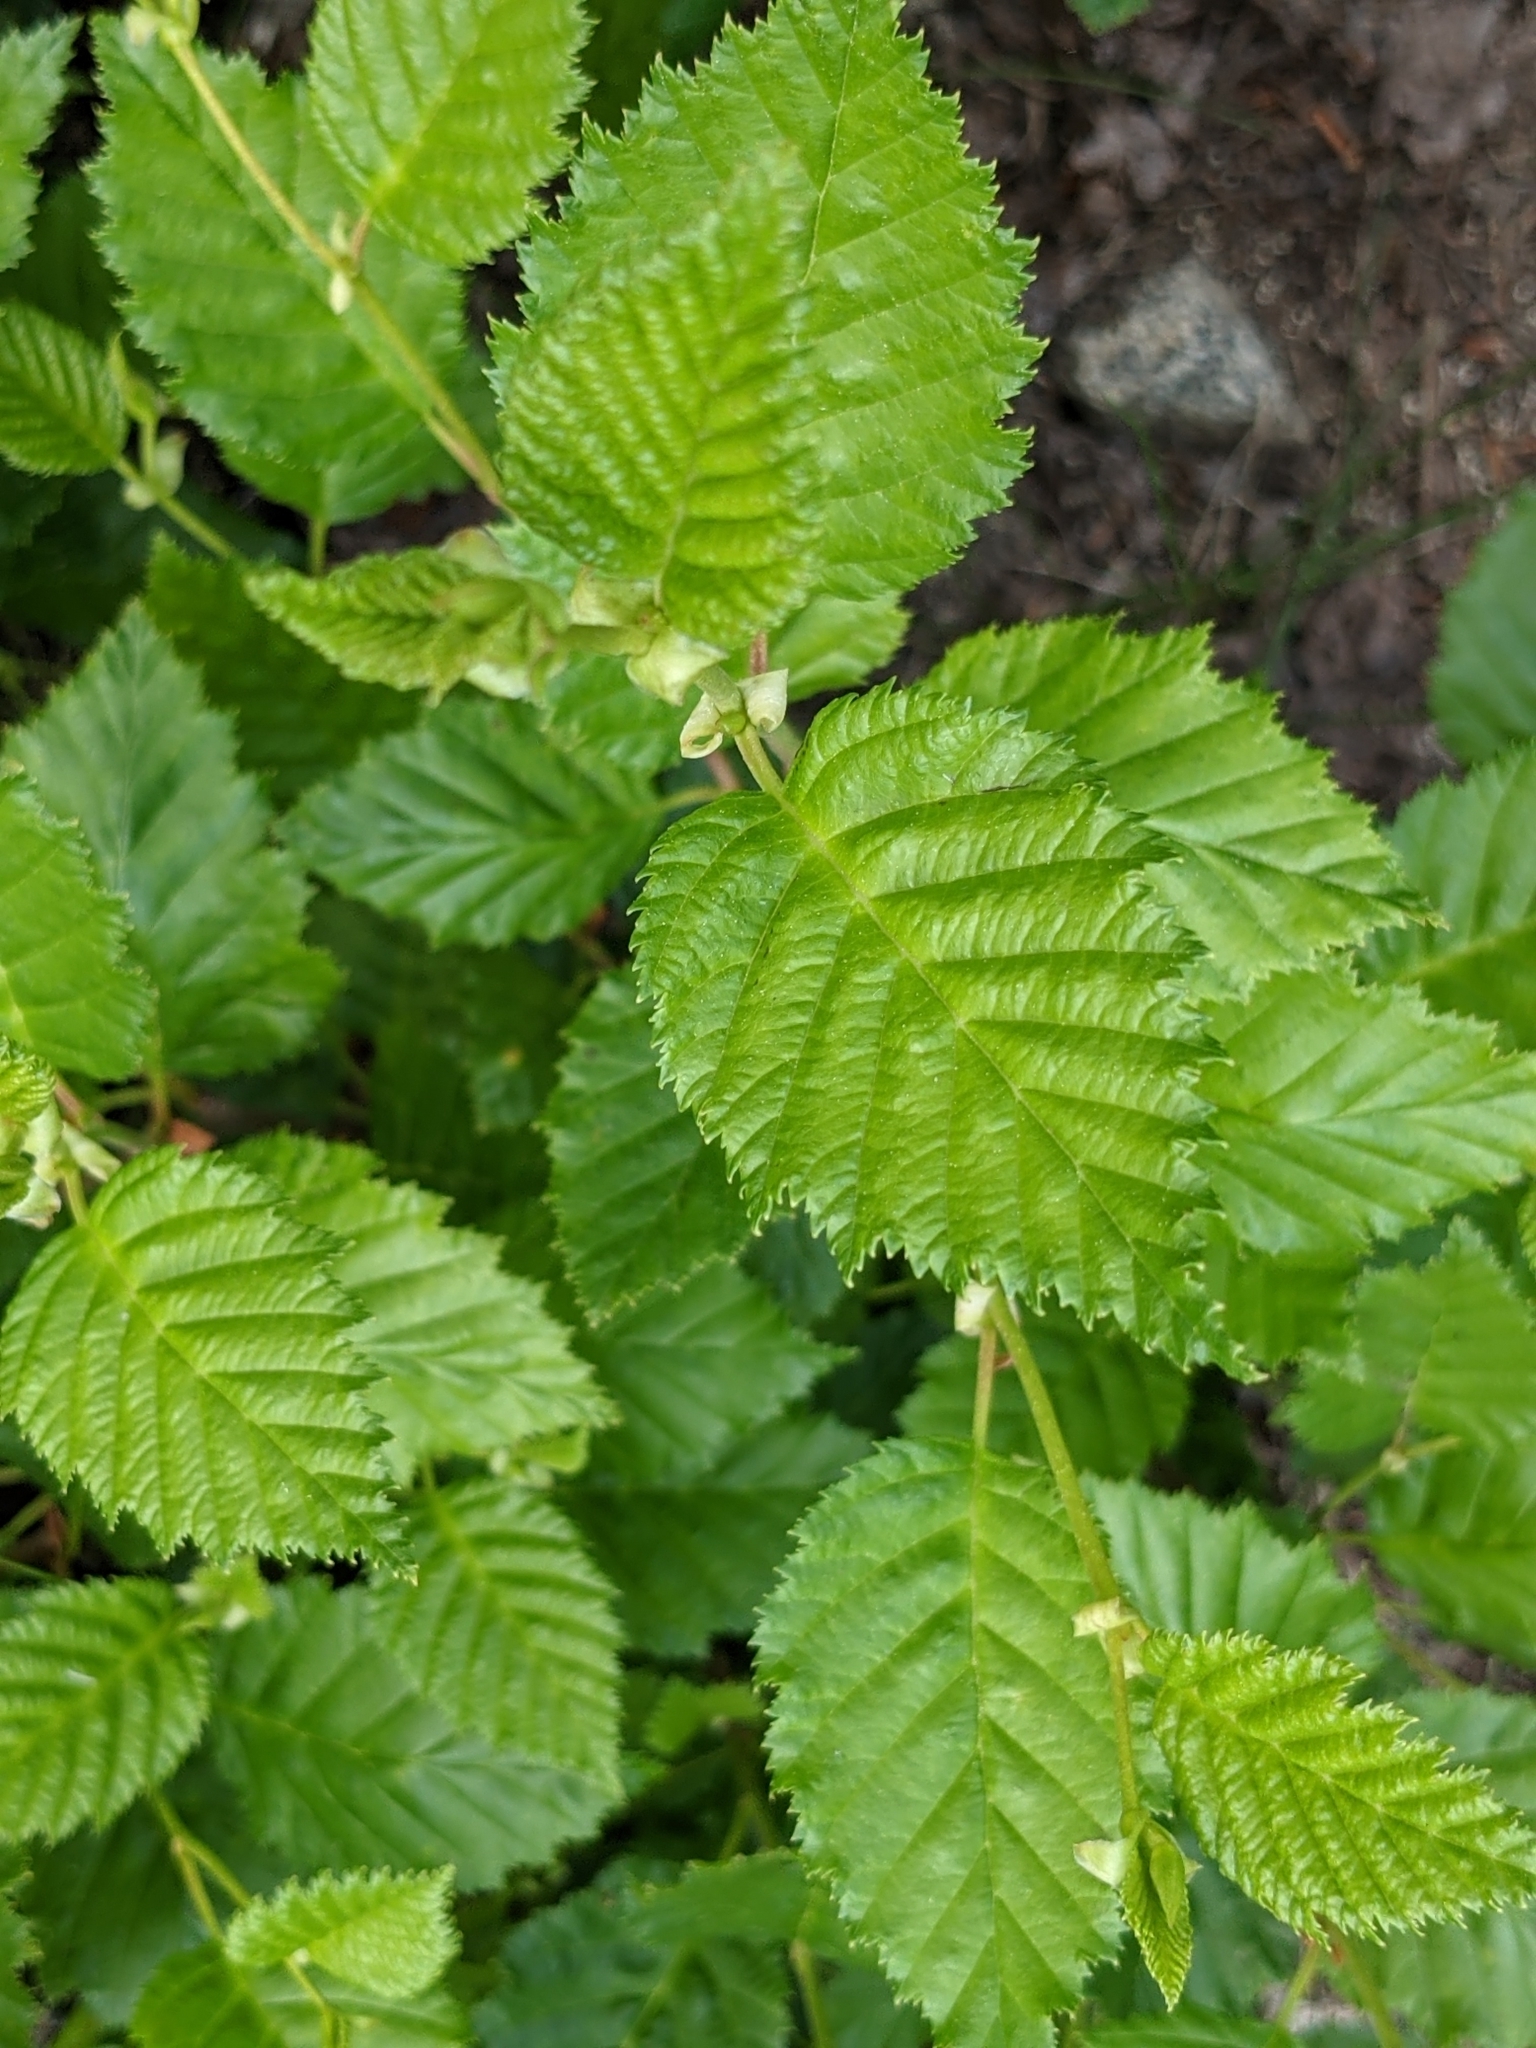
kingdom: Plantae
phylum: Tracheophyta
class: Magnoliopsida
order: Fagales
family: Betulaceae
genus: Alnus
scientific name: Alnus alnobetula
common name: Green alder
